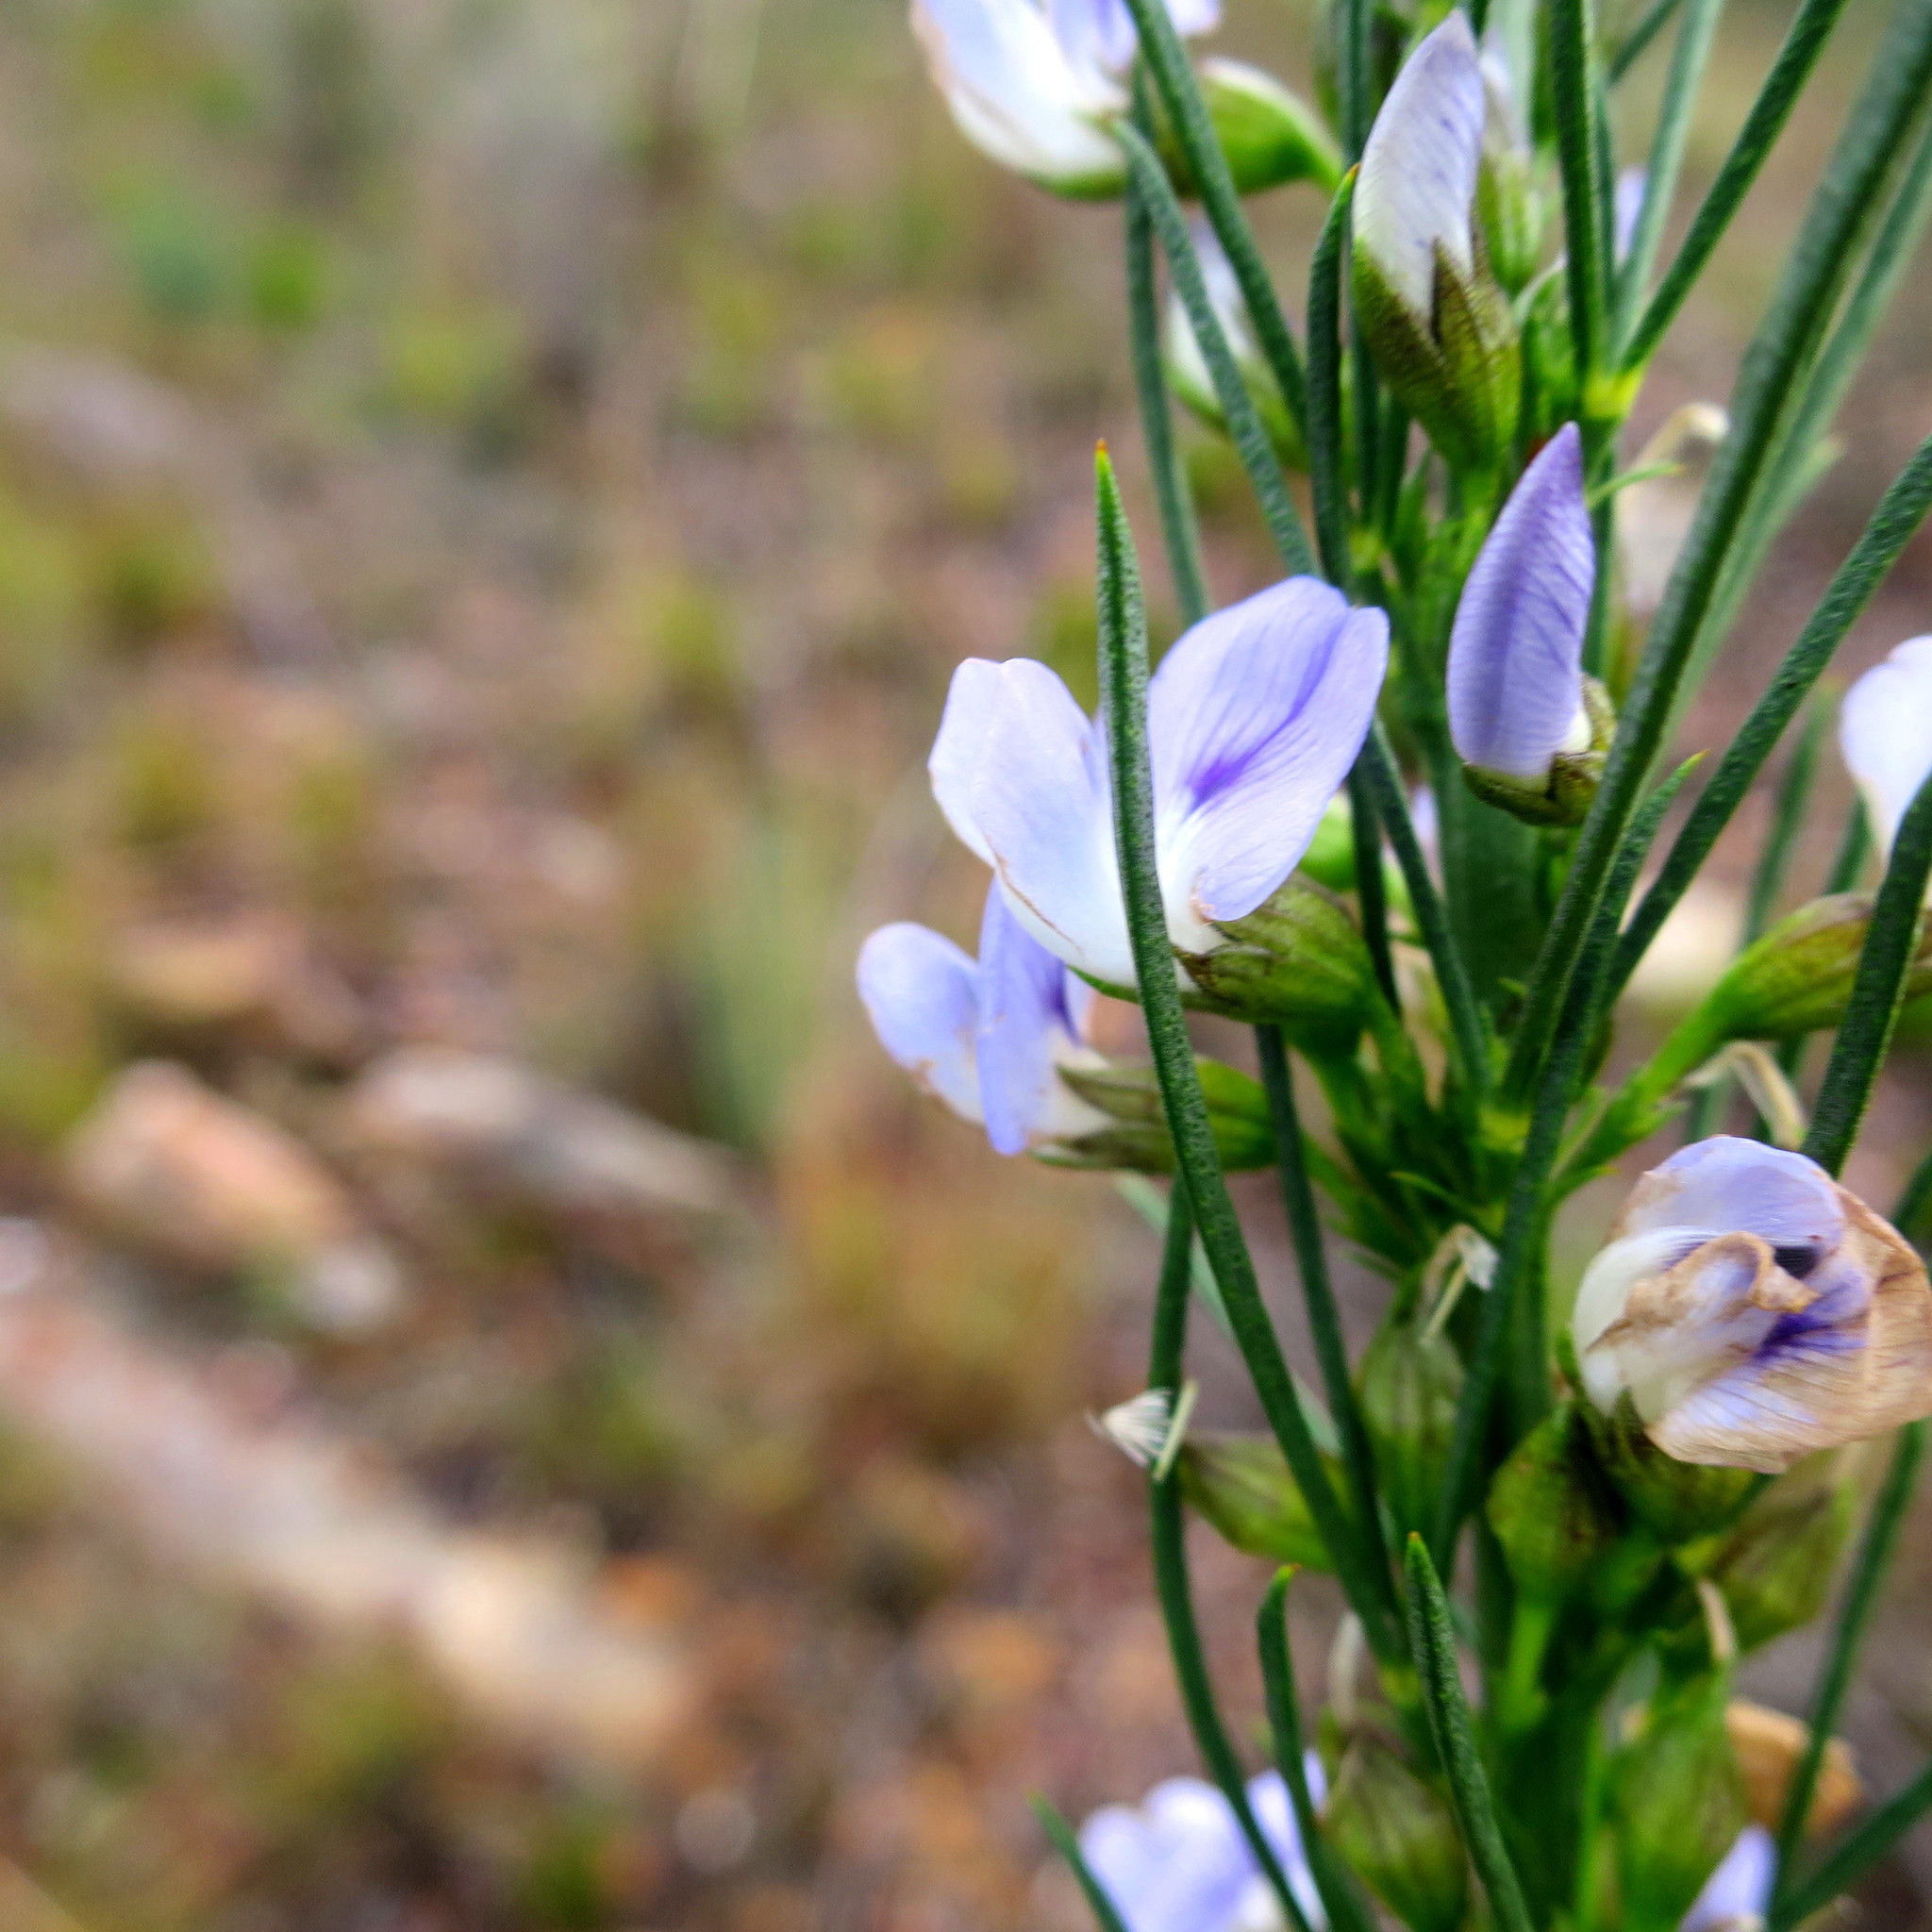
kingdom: Plantae
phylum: Tracheophyta
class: Magnoliopsida
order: Fabales
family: Fabaceae
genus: Psoralea
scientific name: Psoralea diturnerae
